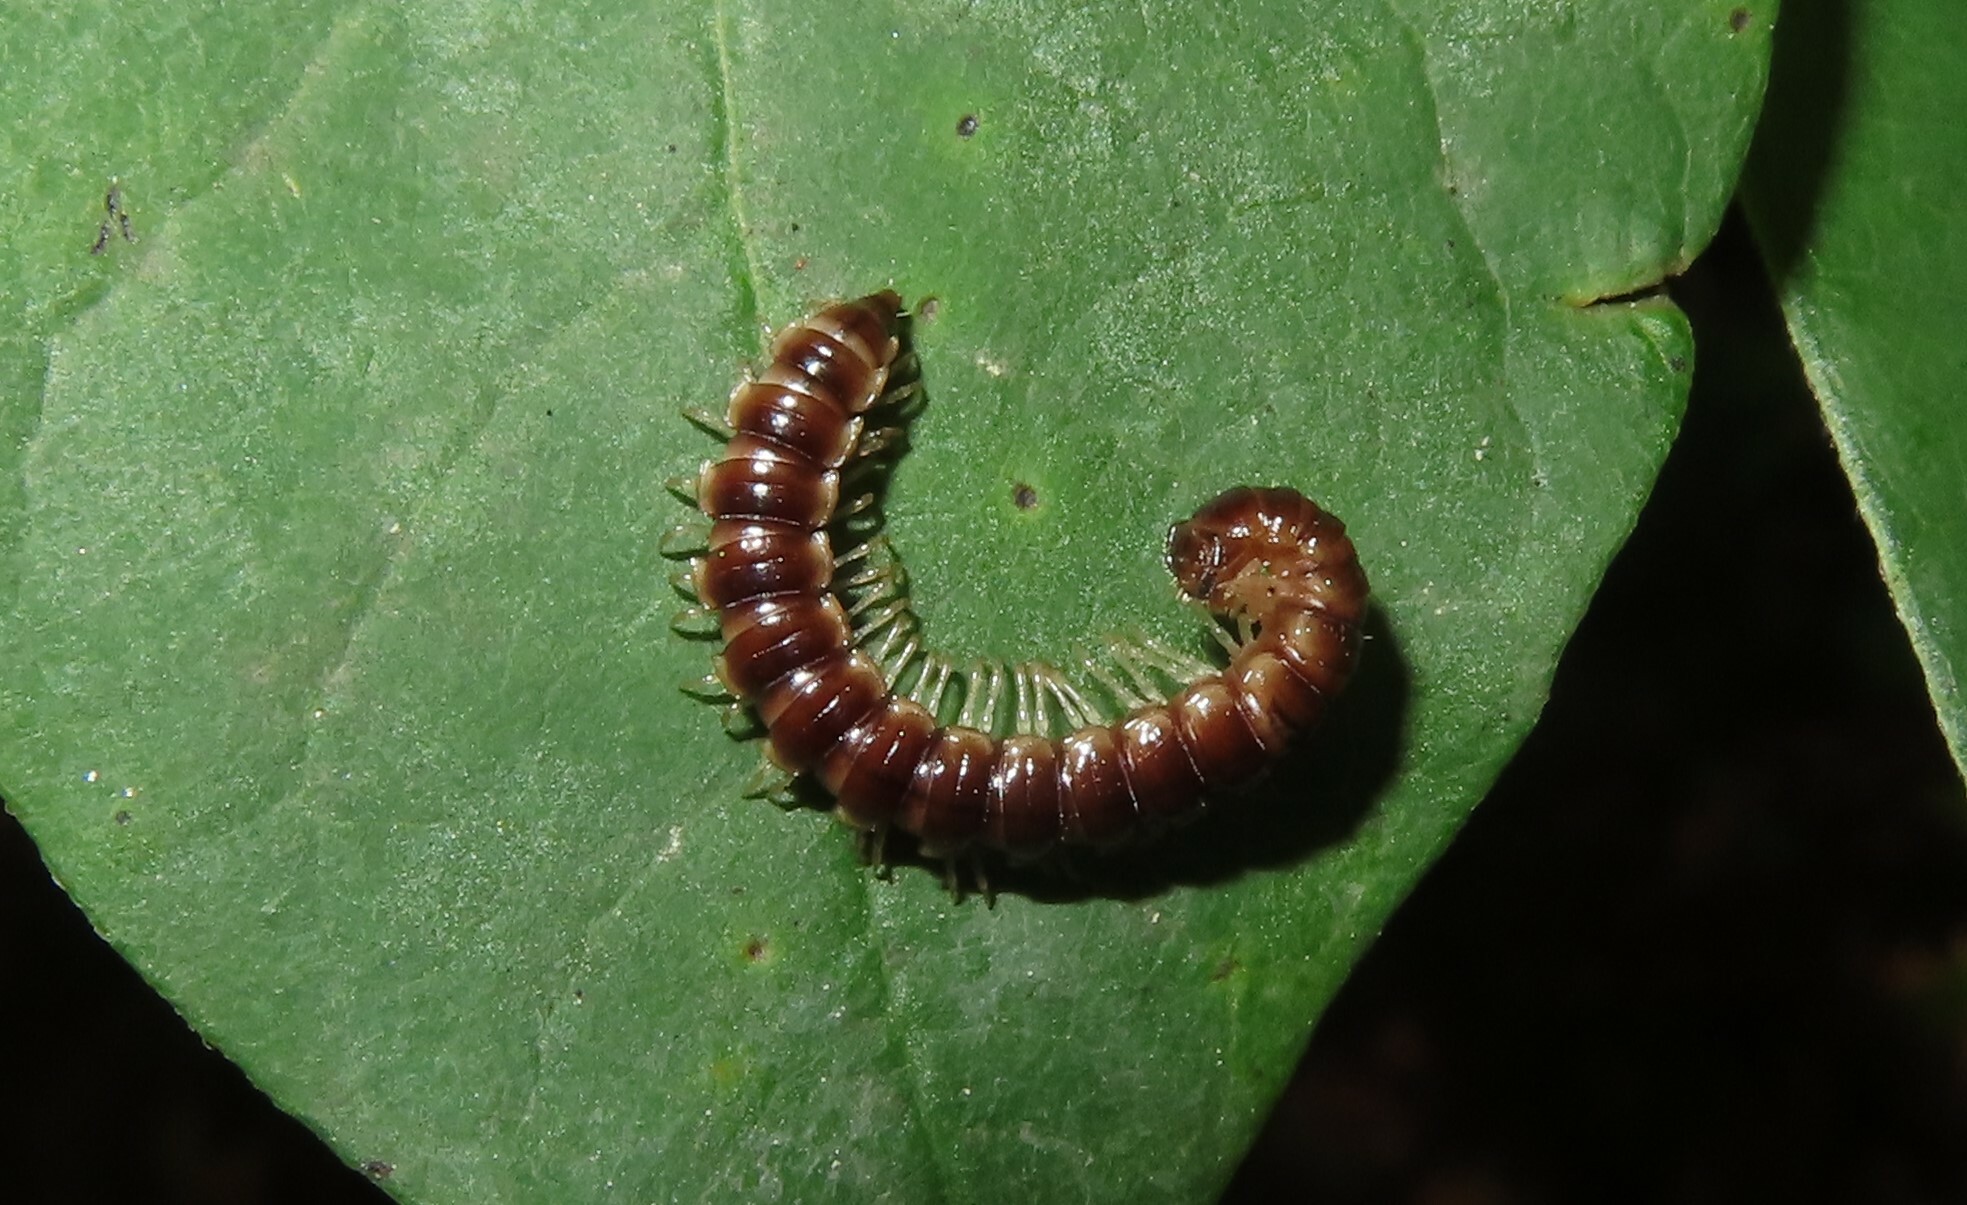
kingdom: Animalia
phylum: Arthropoda
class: Diplopoda
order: Polydesmida
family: Paradoxosomatidae
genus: Oxidus
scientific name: Oxidus gracilis
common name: Greenhouse millipede
